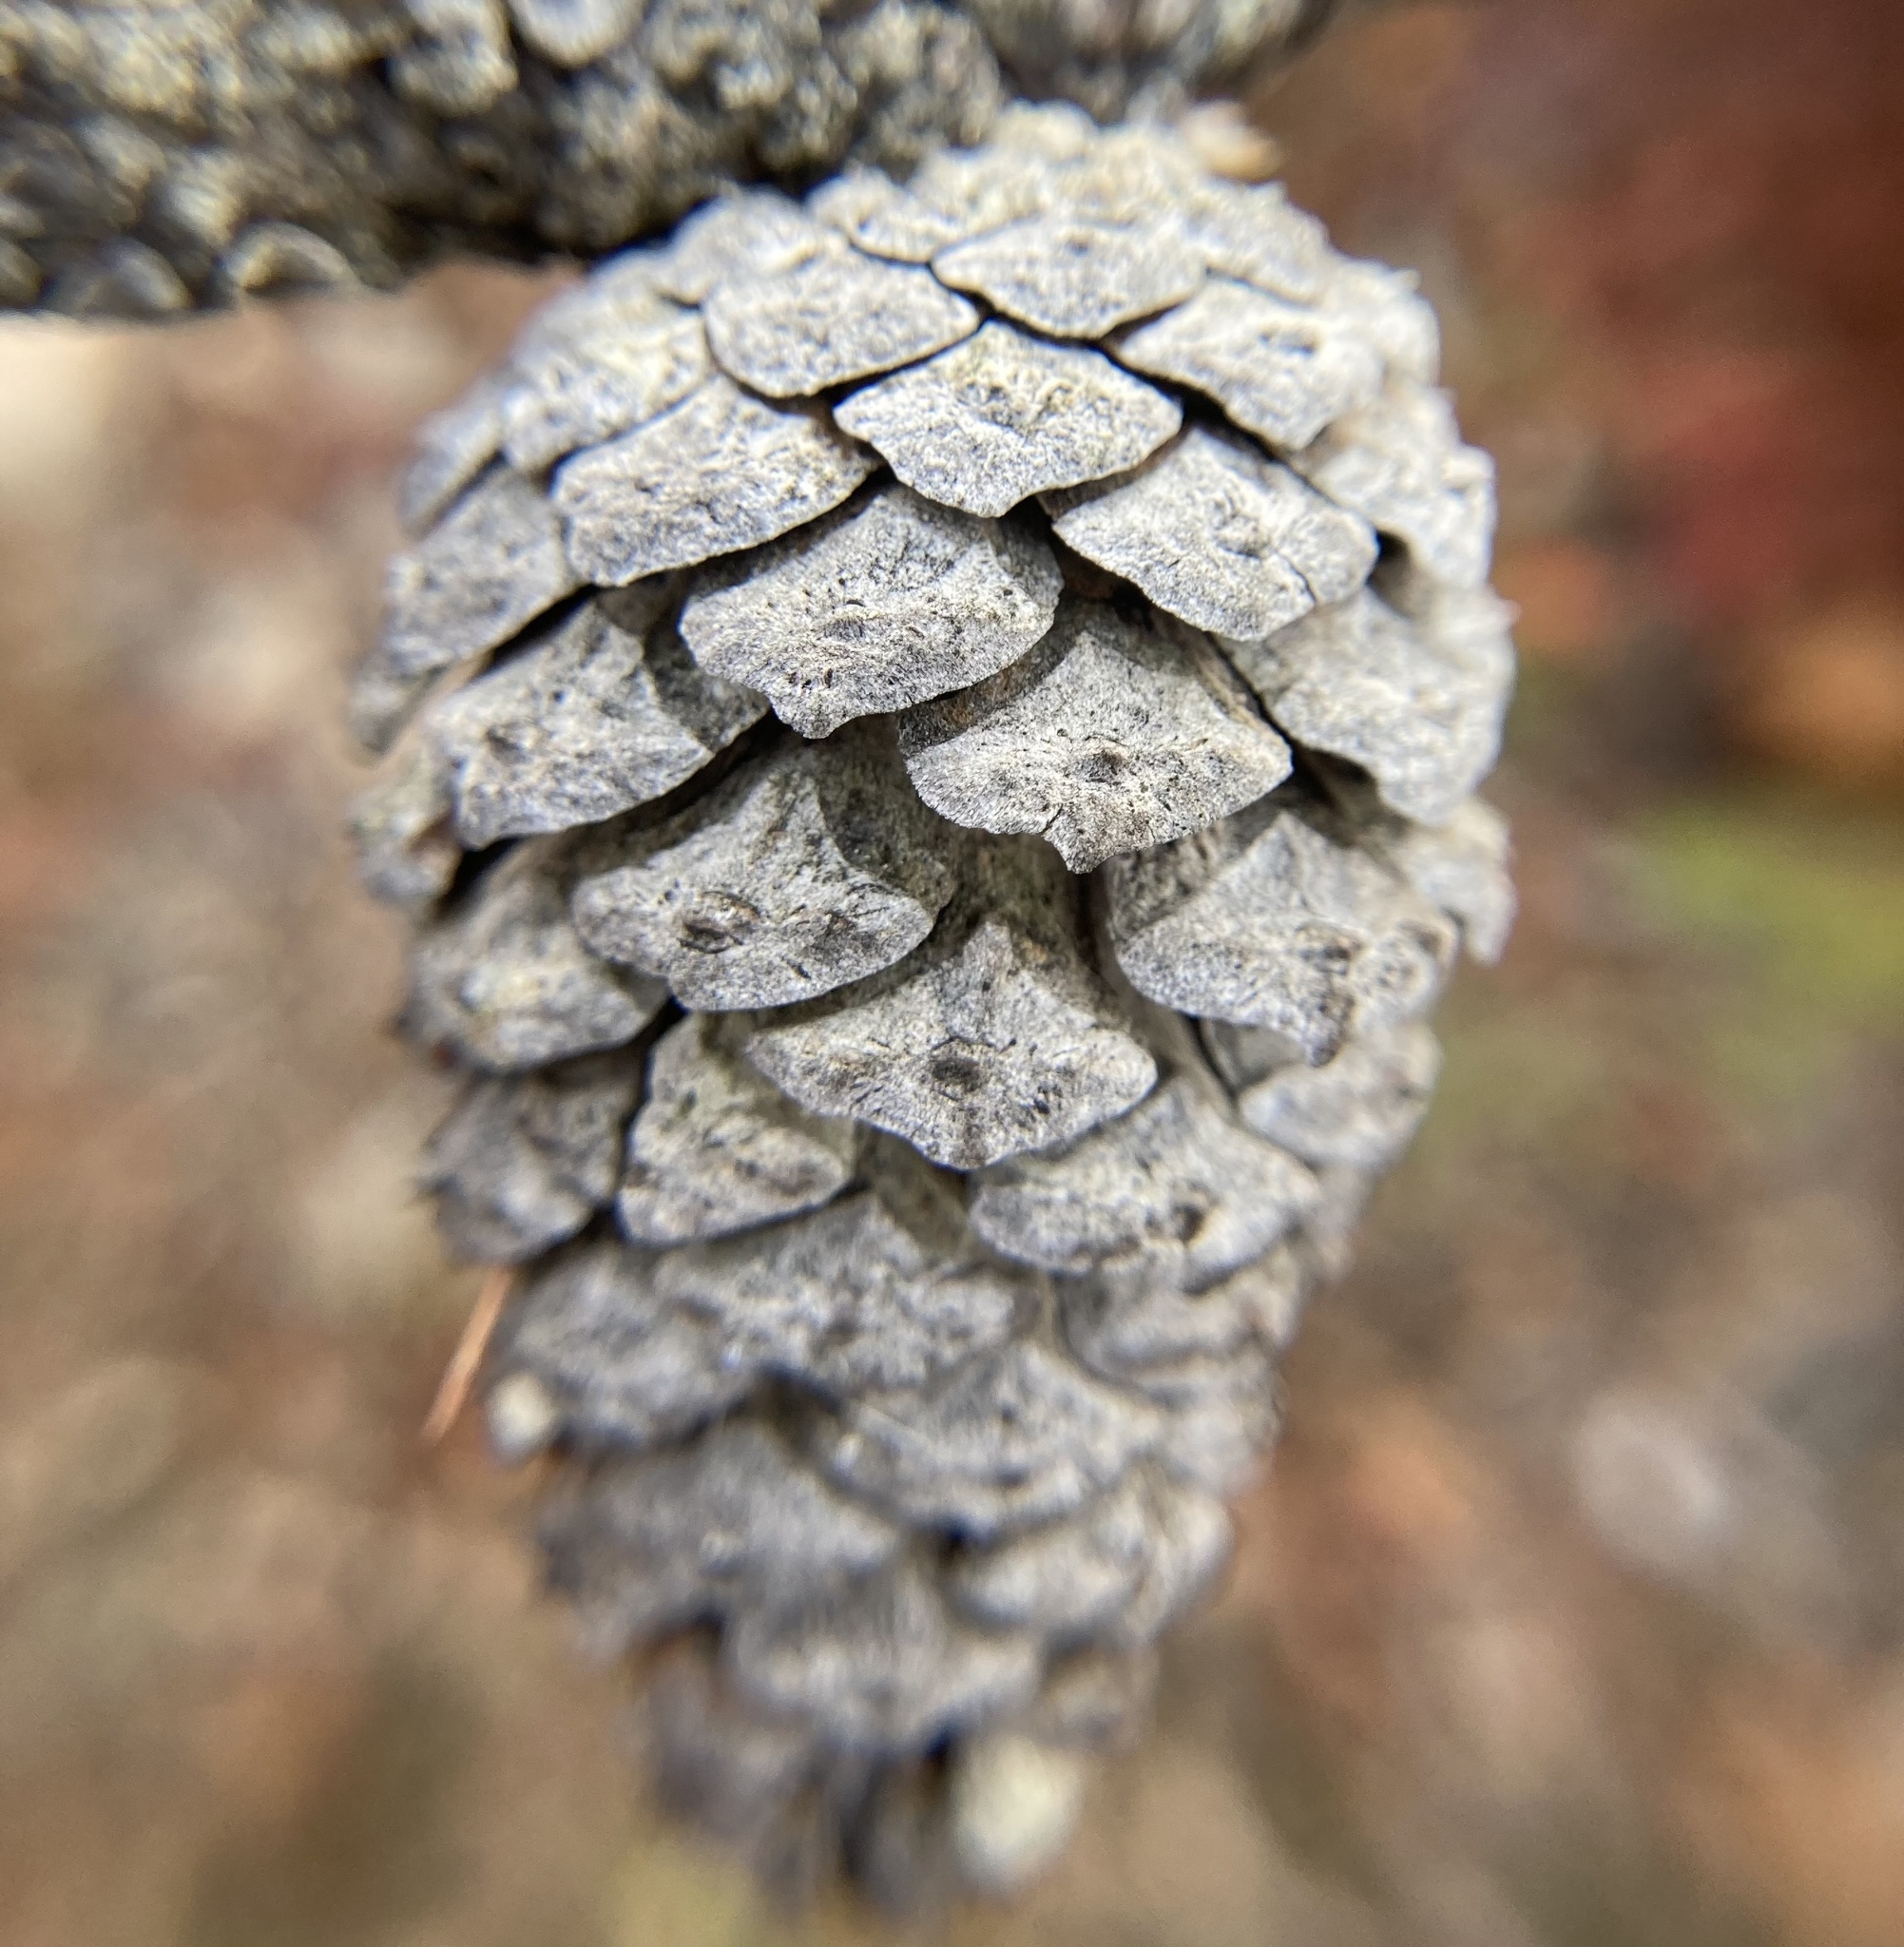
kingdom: Plantae
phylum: Tracheophyta
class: Pinopsida
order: Pinales
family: Pinaceae
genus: Pinus
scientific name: Pinus rigida
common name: Pitch pine
